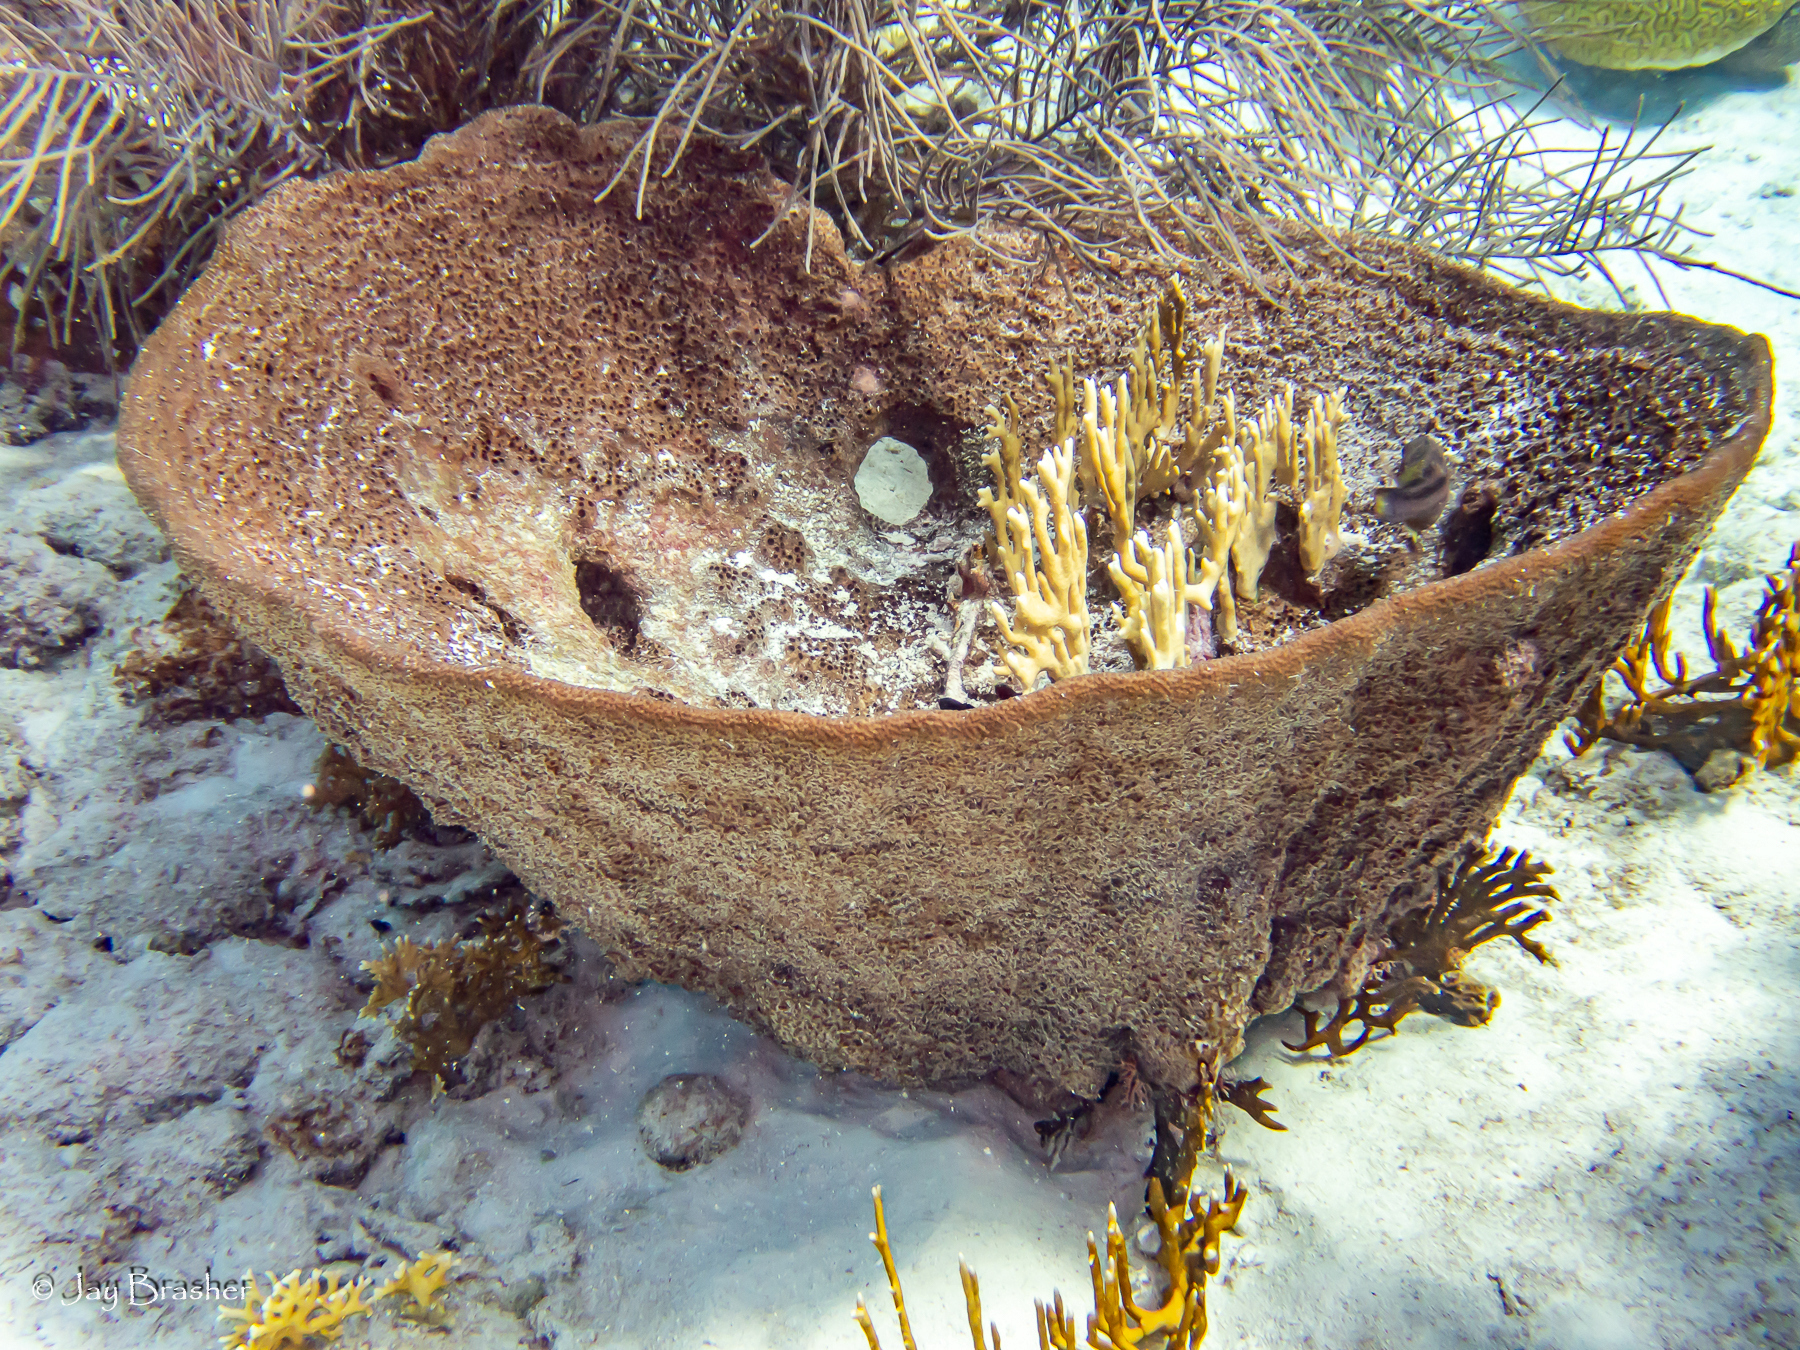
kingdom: Animalia
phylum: Porifera
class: Demospongiae
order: Dictyoceratida
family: Irciniidae
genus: Ircinia
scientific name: Ircinia campana
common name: Vase sponge
